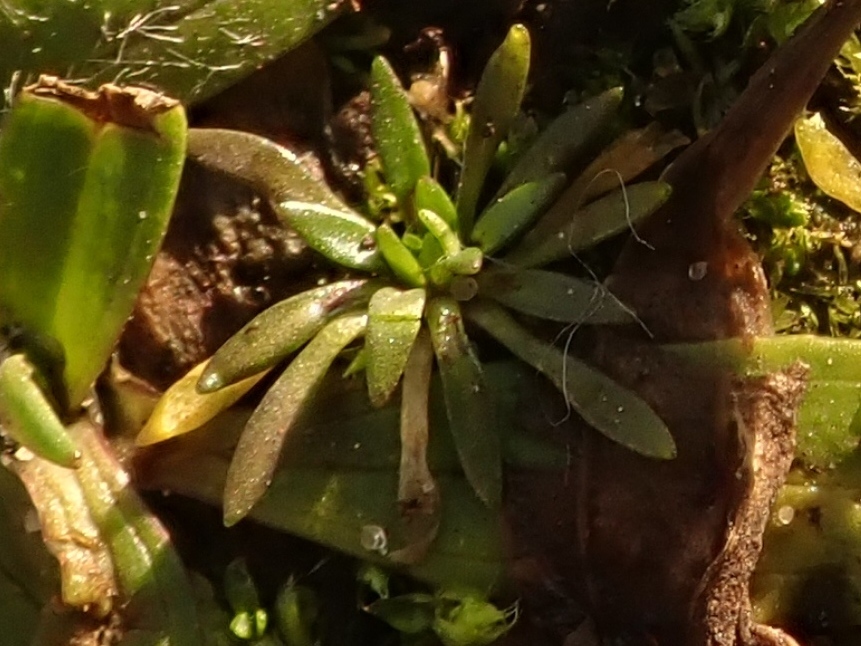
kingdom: Plantae
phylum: Tracheophyta
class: Magnoliopsida
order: Brassicales
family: Brassicaceae
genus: Draba
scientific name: Draba verna
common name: Spring draba
